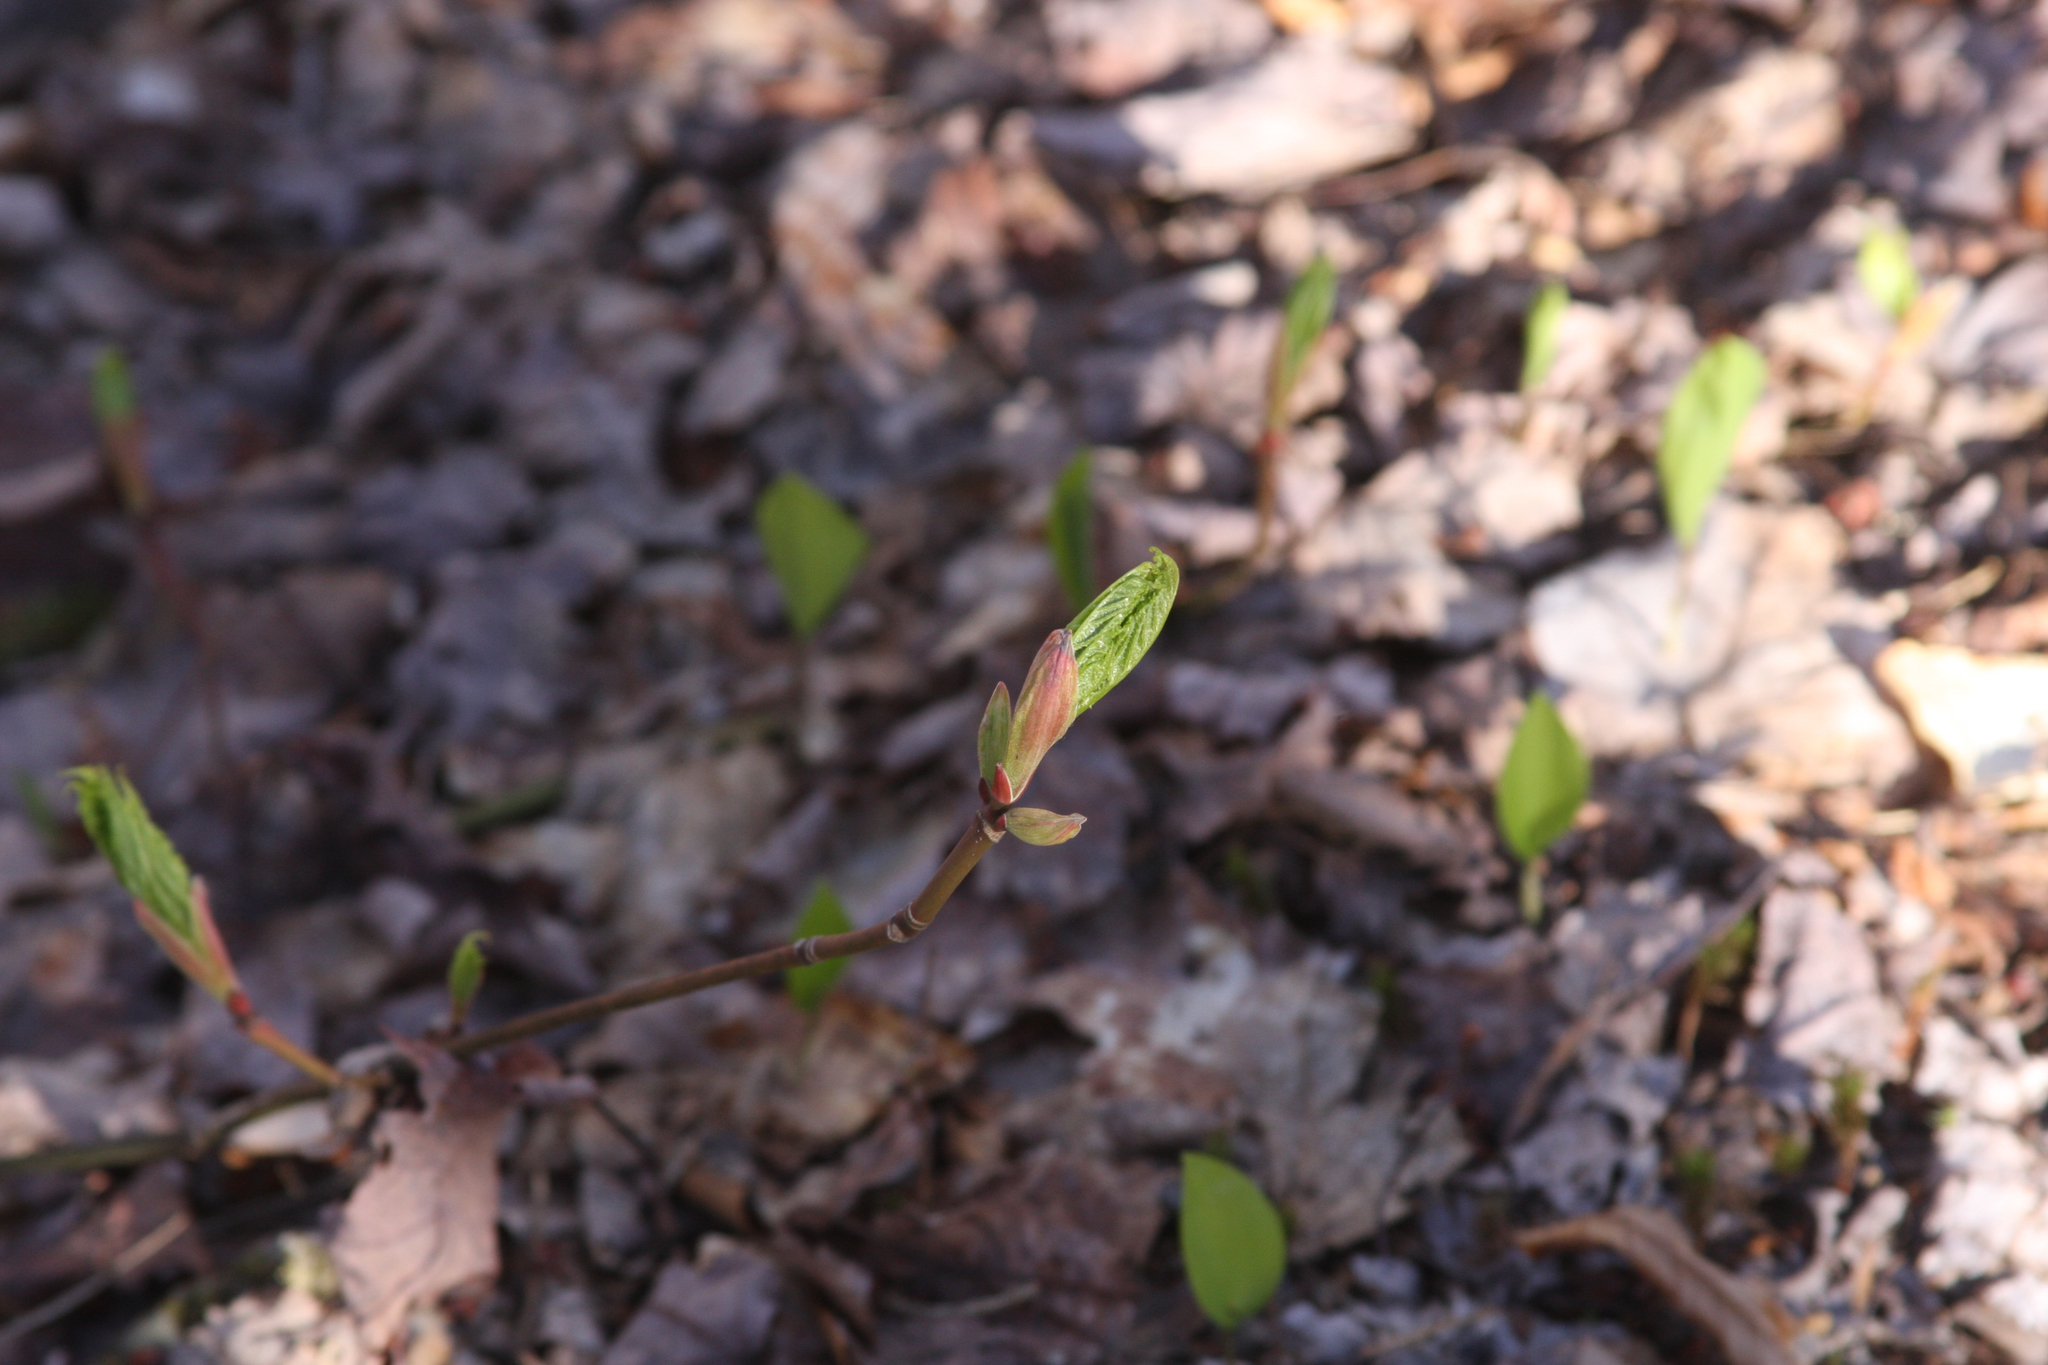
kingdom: Plantae
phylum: Tracheophyta
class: Magnoliopsida
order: Sapindales
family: Sapindaceae
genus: Acer
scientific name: Acer pensylvanicum
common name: Moosewood
